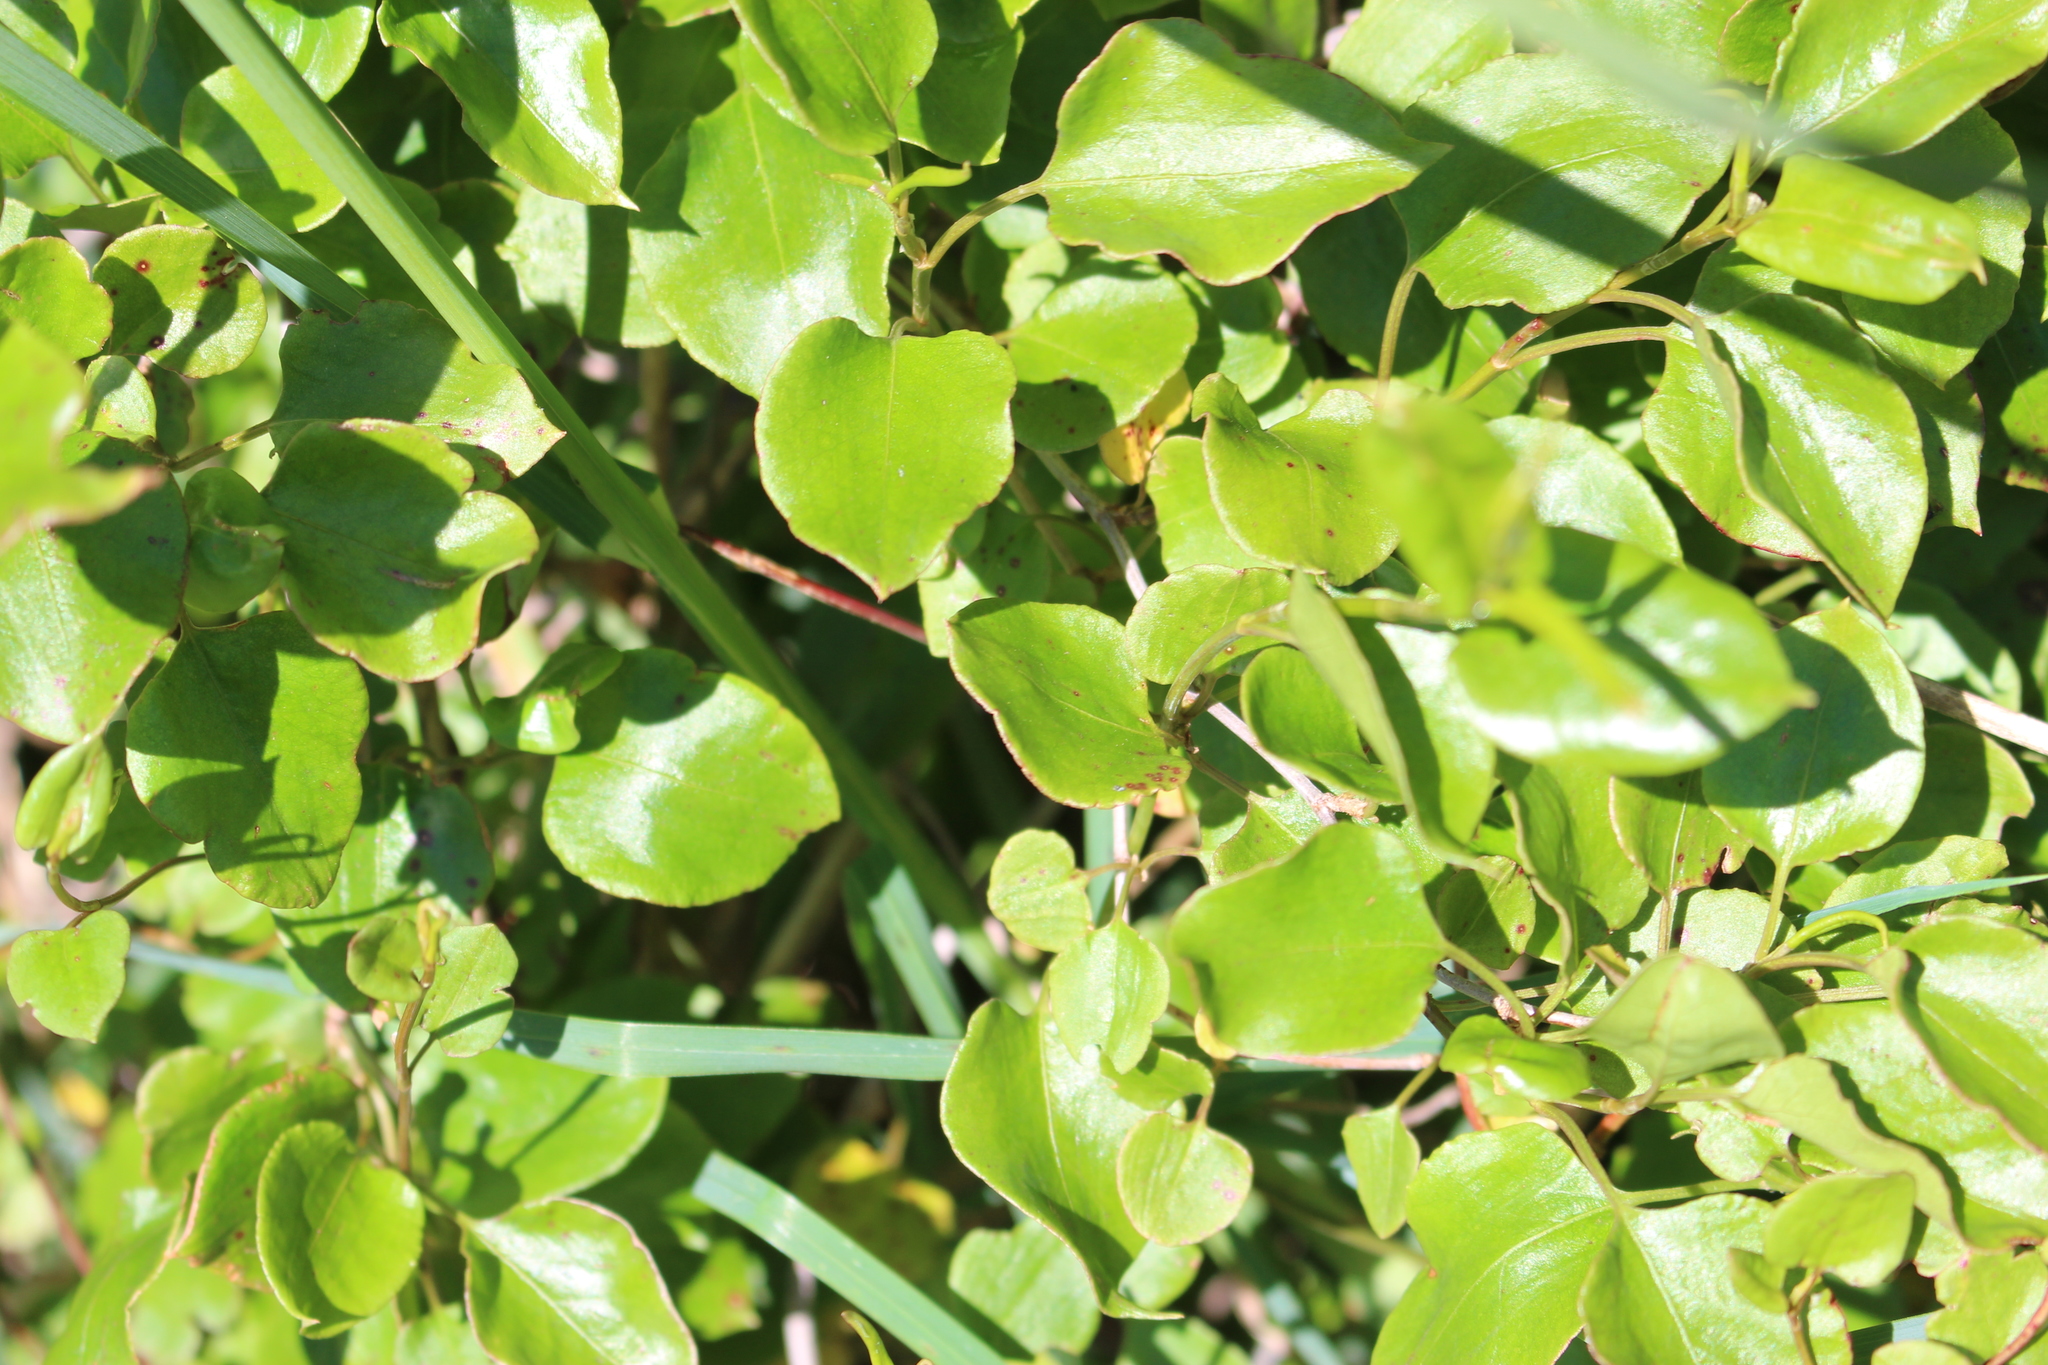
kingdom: Plantae
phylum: Tracheophyta
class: Magnoliopsida
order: Caryophyllales
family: Polygonaceae
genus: Muehlenbeckia
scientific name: Muehlenbeckia australis
